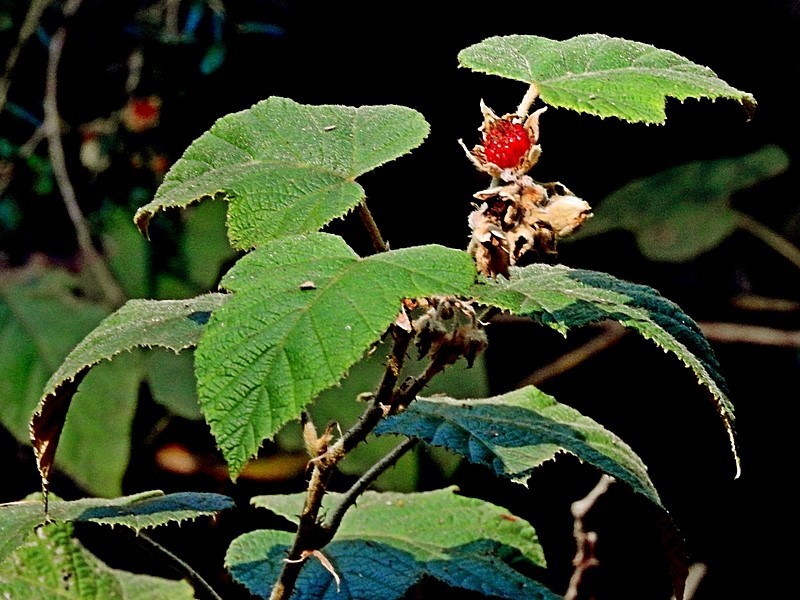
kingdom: Plantae
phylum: Tracheophyta
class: Magnoliopsida
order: Rosales
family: Rosaceae
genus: Rubus
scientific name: Rubus moluccanus
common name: Wild raspberry
